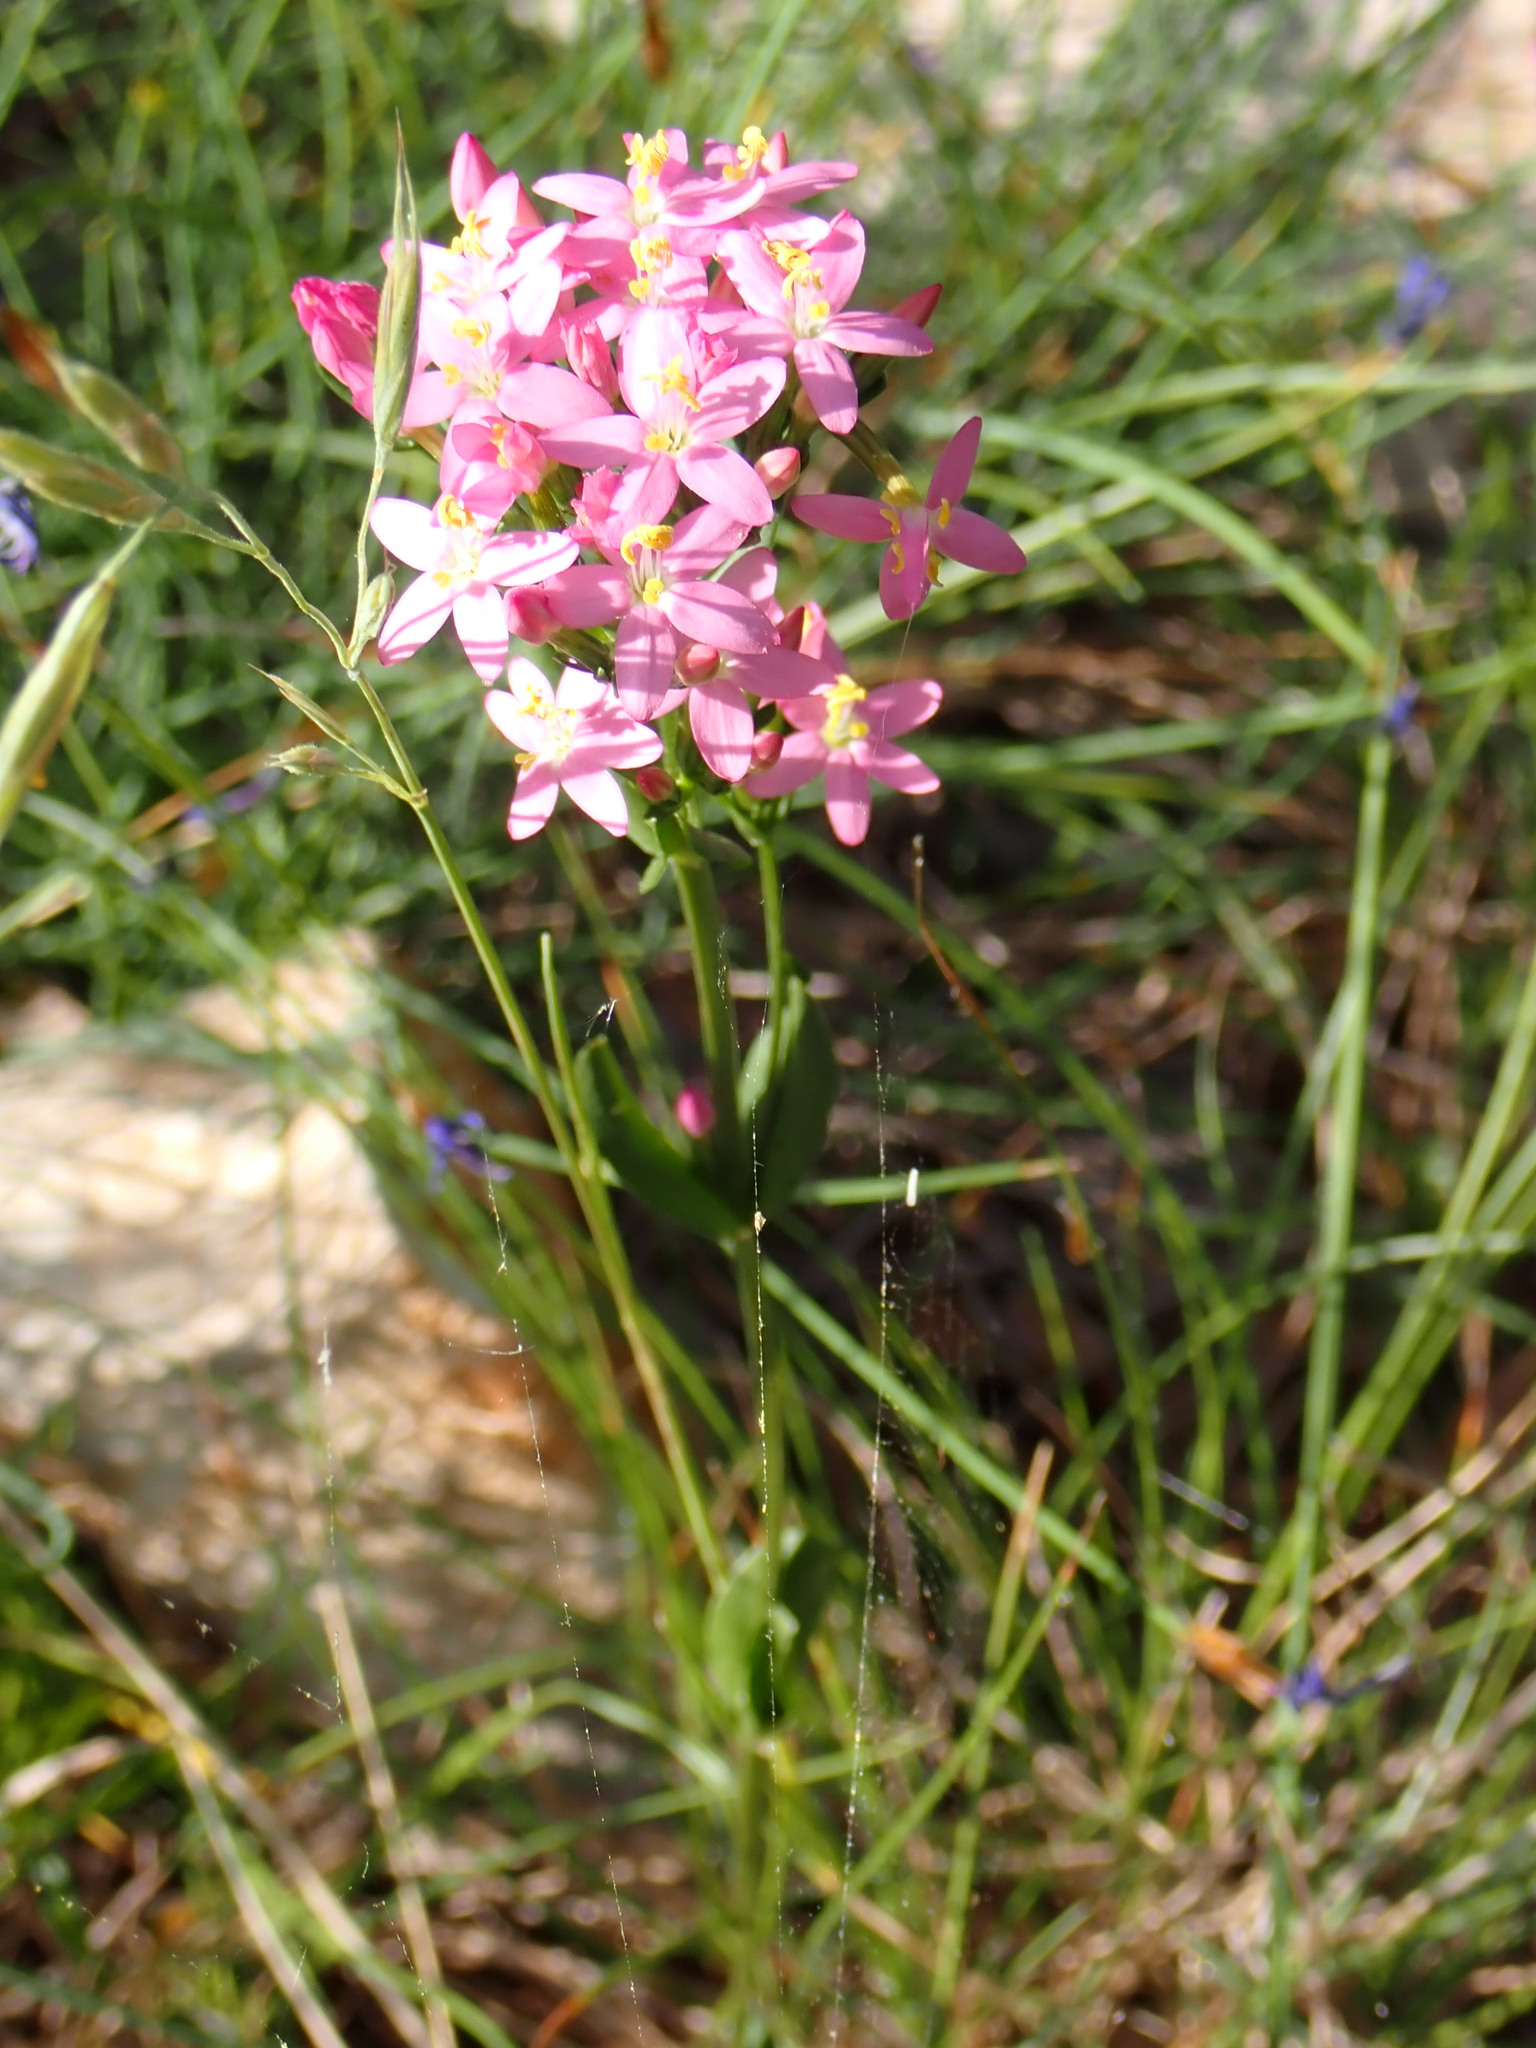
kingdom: Plantae
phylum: Tracheophyta
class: Magnoliopsida
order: Gentianales
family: Gentianaceae
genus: Centaurium
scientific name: Centaurium erythraea
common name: Common centaury
